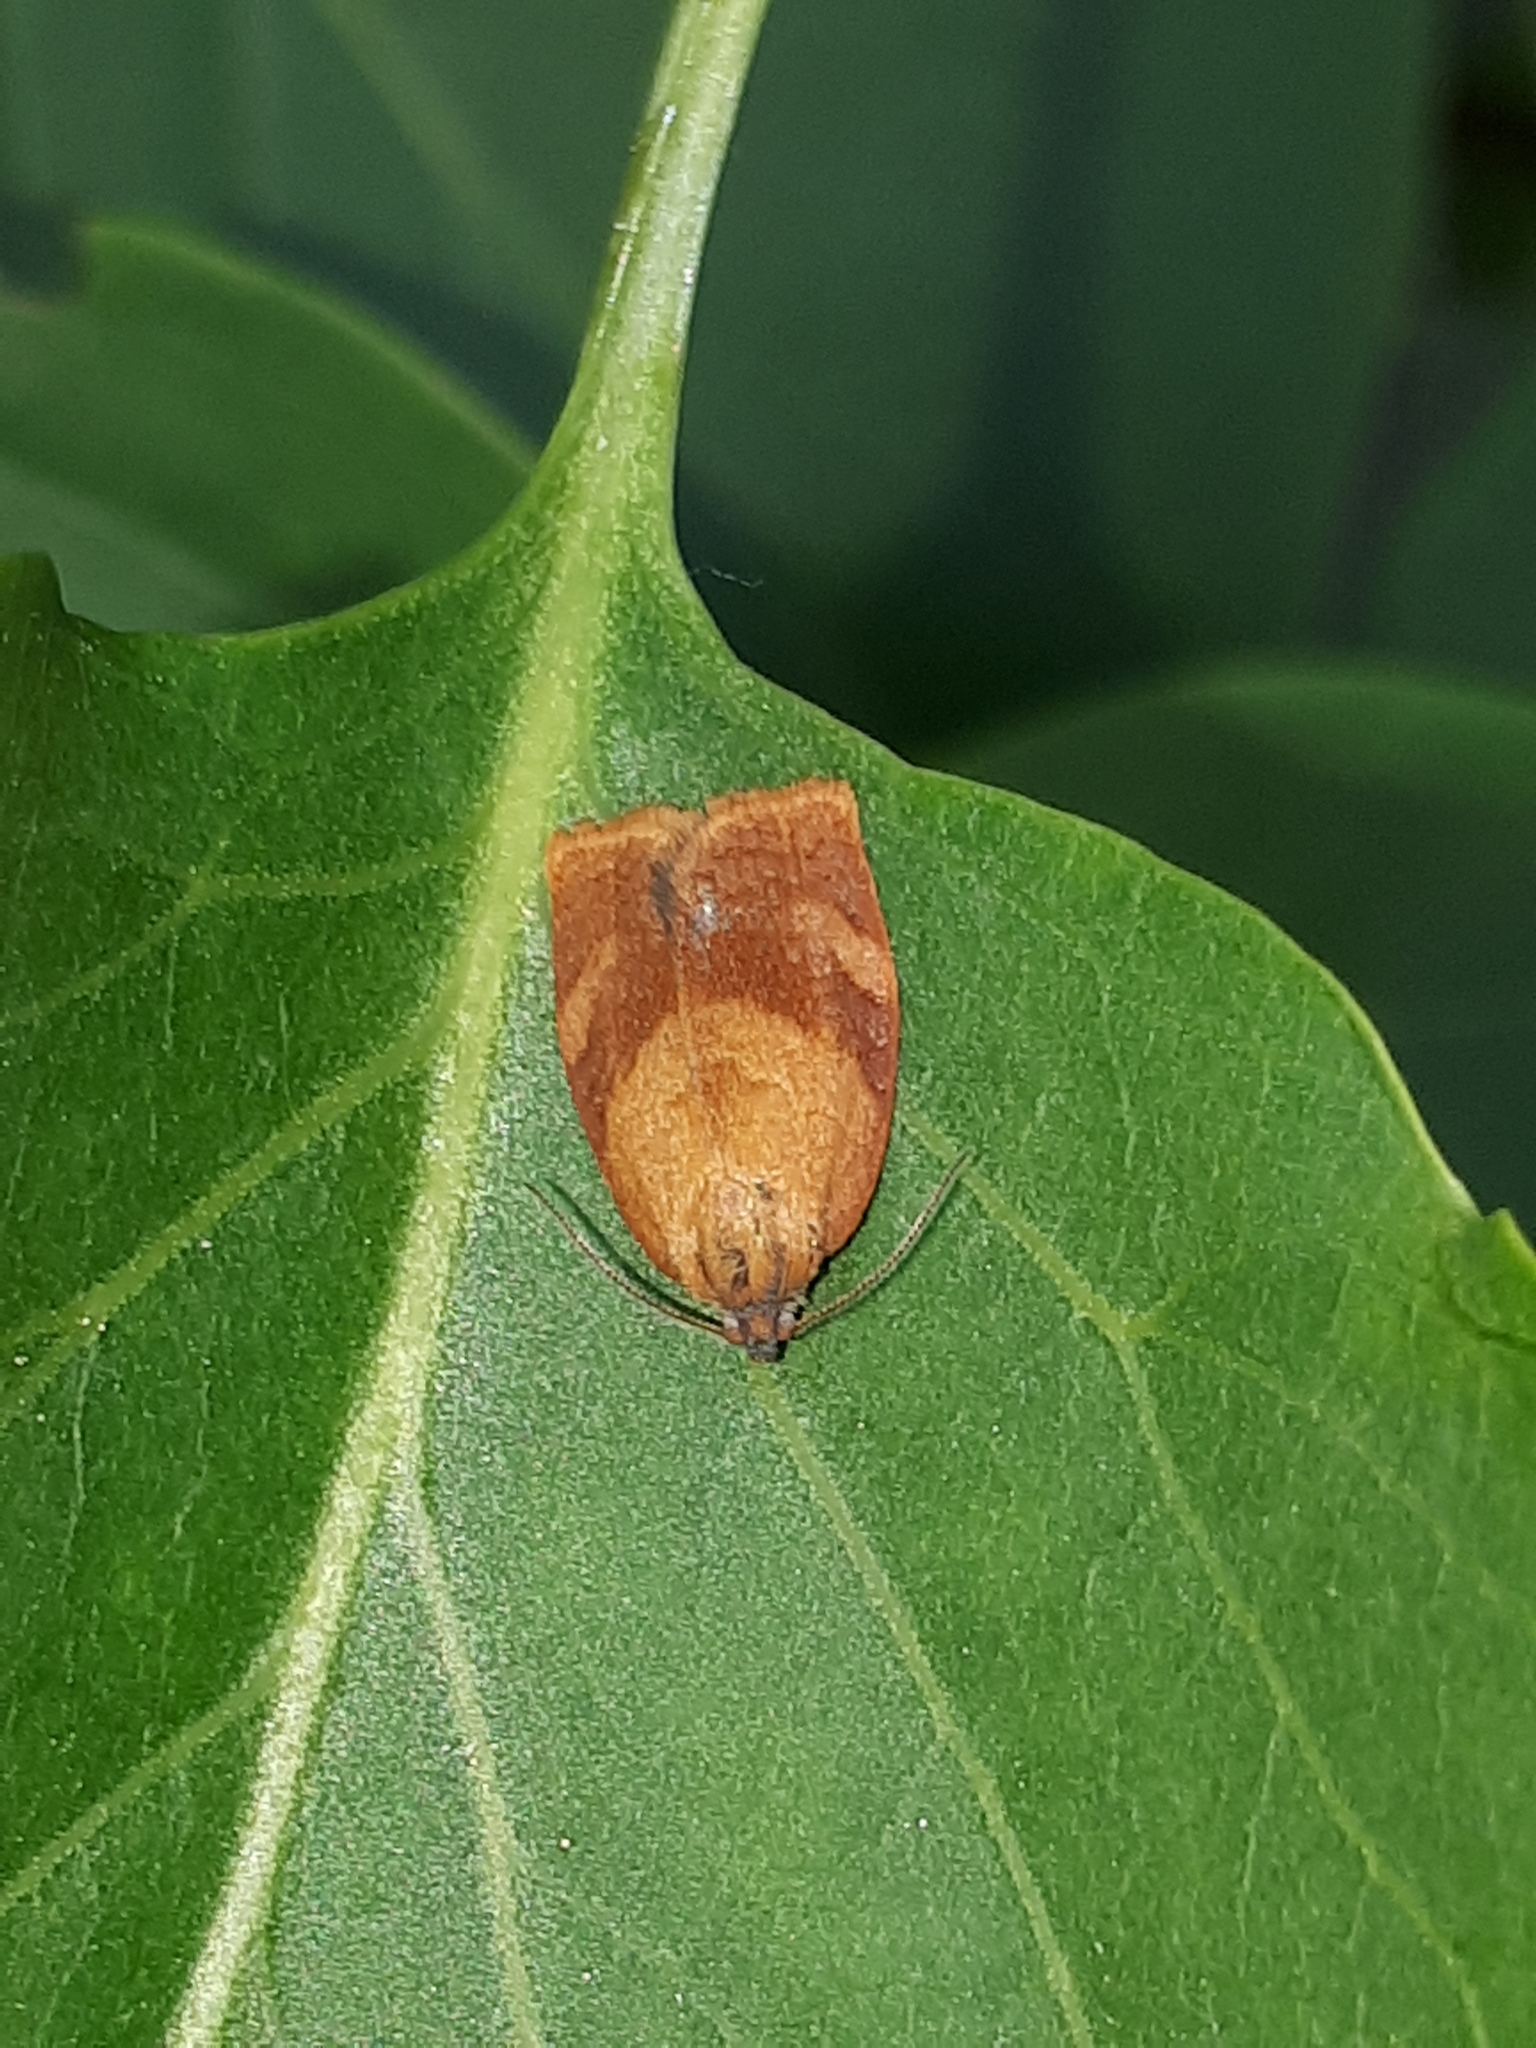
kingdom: Animalia
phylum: Arthropoda
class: Insecta
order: Lepidoptera
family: Tortricidae
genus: Cacoecimorpha
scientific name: Cacoecimorpha pronubana
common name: Carnation tortrix
